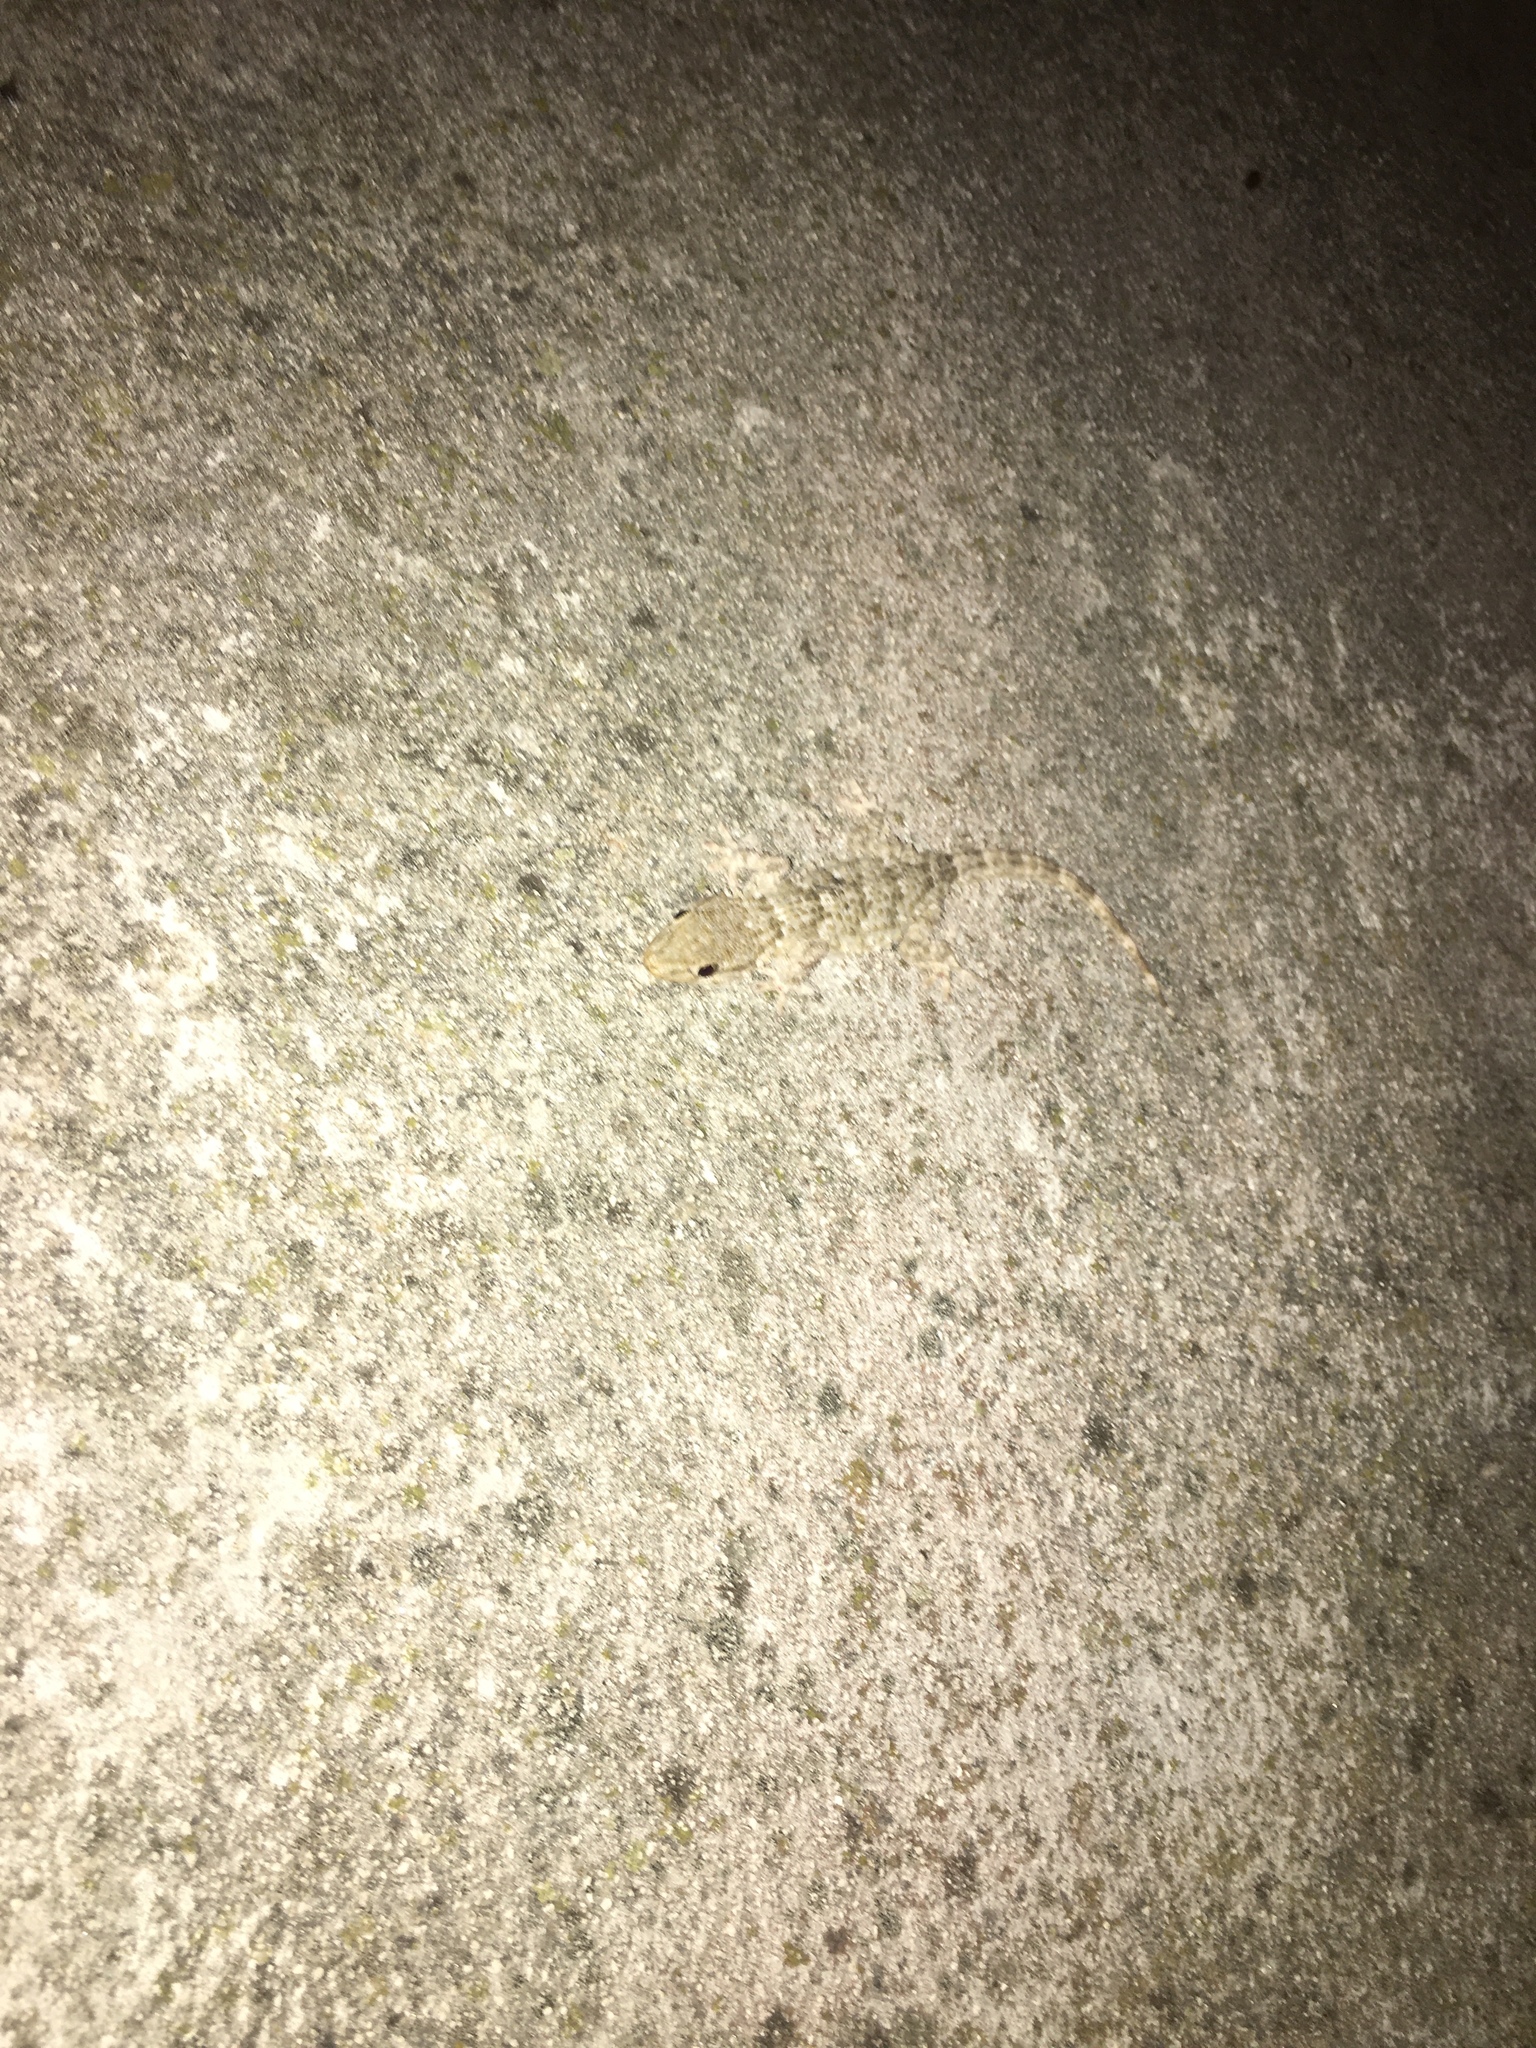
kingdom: Animalia
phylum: Chordata
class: Squamata
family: Phyllodactylidae
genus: Tarentola
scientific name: Tarentola mauritanica
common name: Moorish gecko
